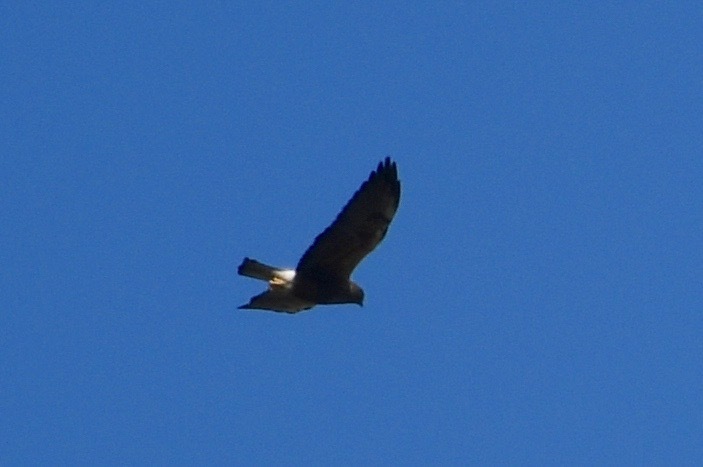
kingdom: Animalia
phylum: Chordata
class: Aves
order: Accipitriformes
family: Accipitridae
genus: Buteo
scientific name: Buteo swainsoni
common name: Swainson's hawk
